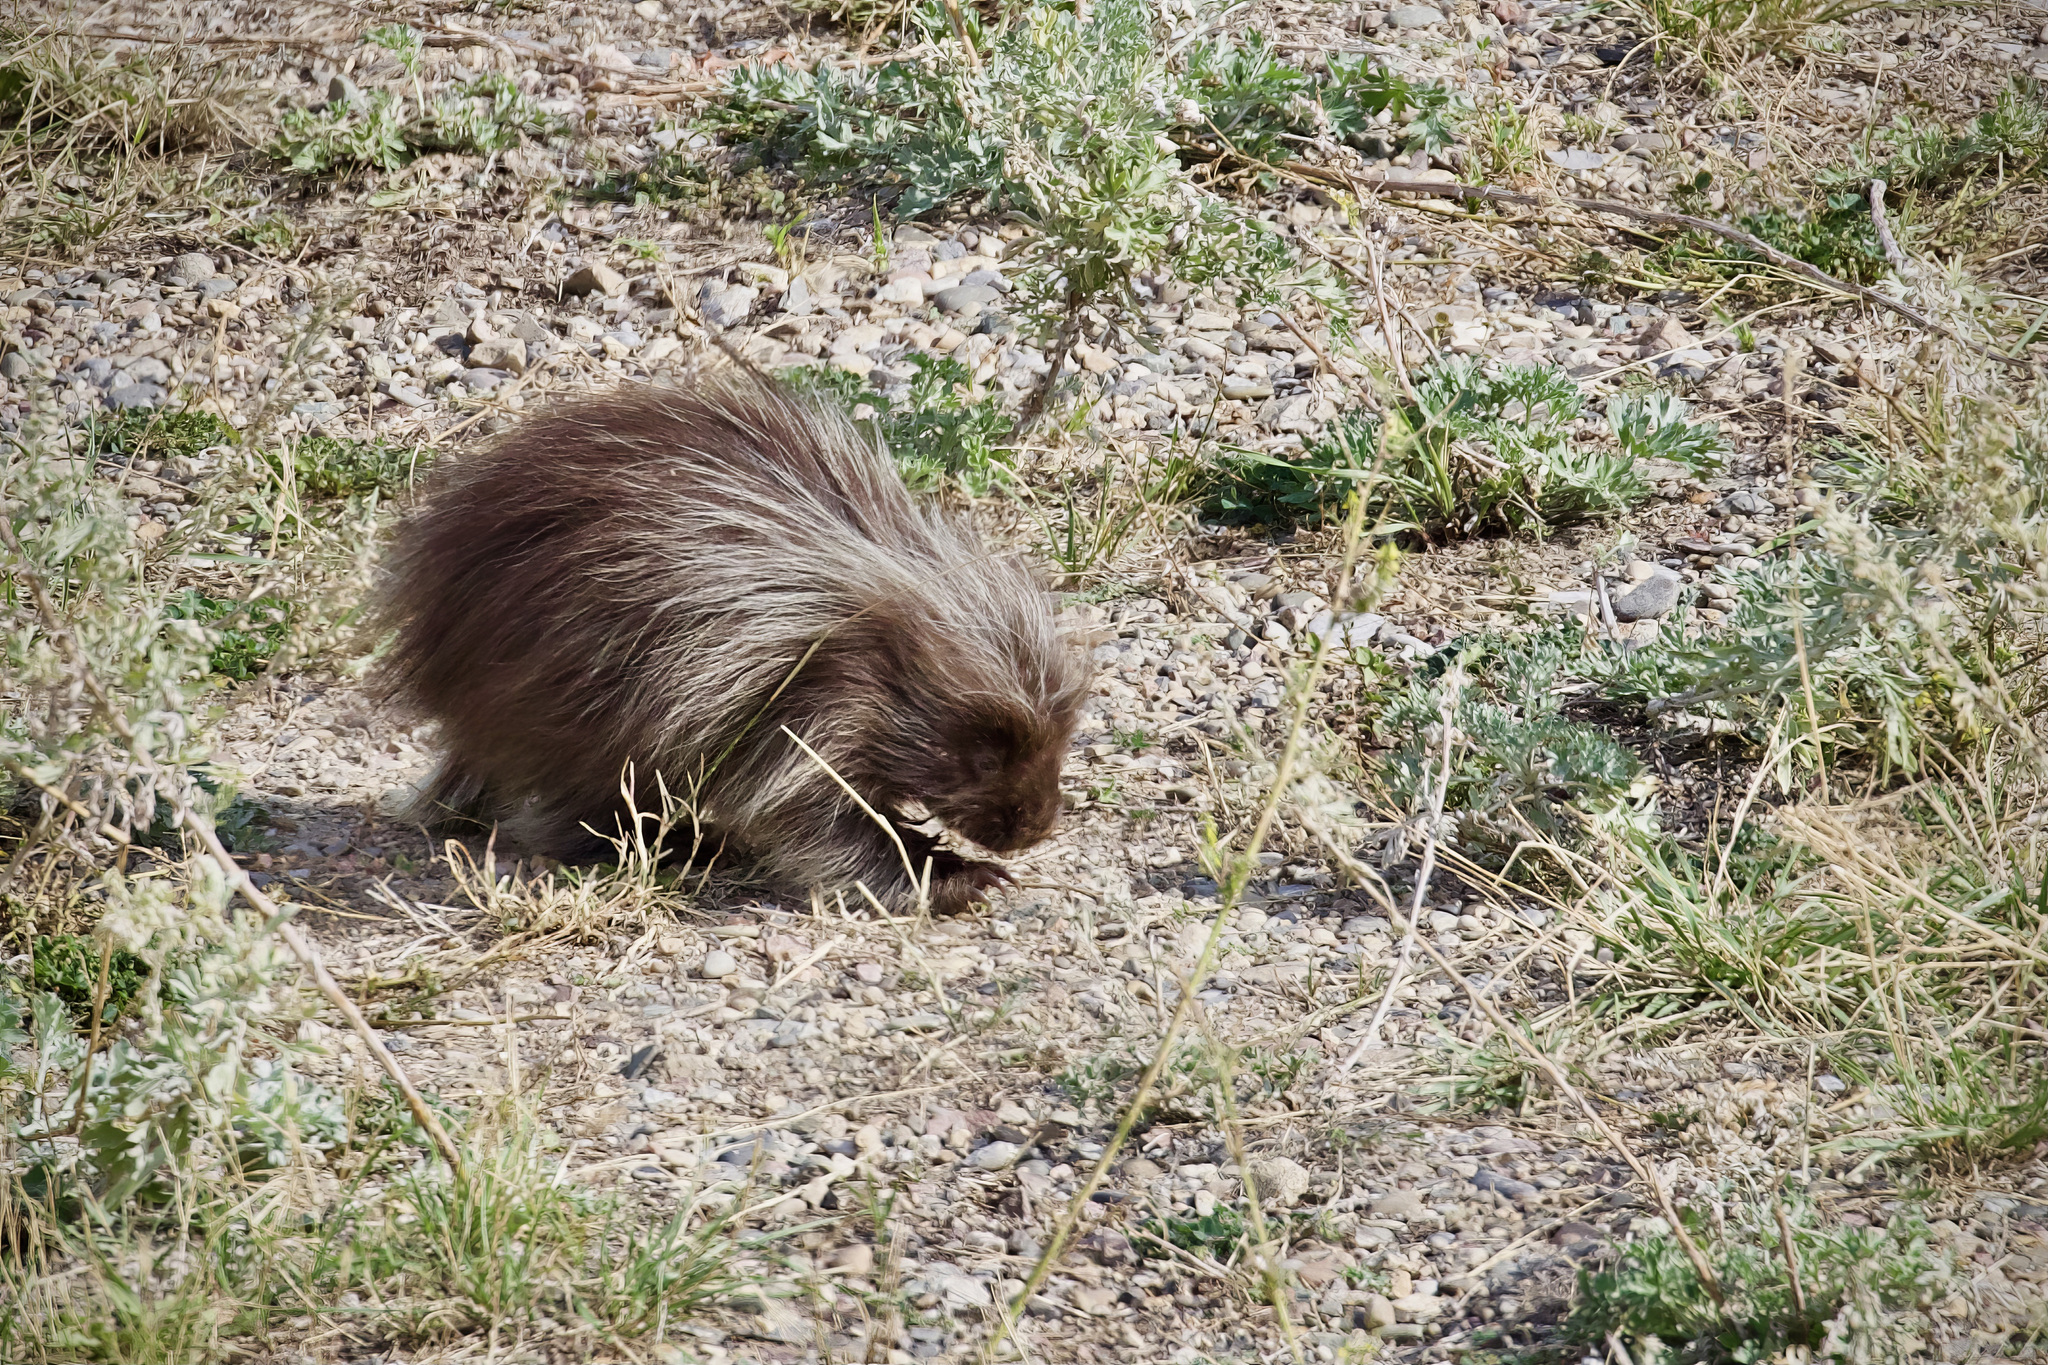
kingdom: Animalia
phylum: Chordata
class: Mammalia
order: Rodentia
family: Erethizontidae
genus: Erethizon
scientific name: Erethizon dorsatus
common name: North american porcupine
